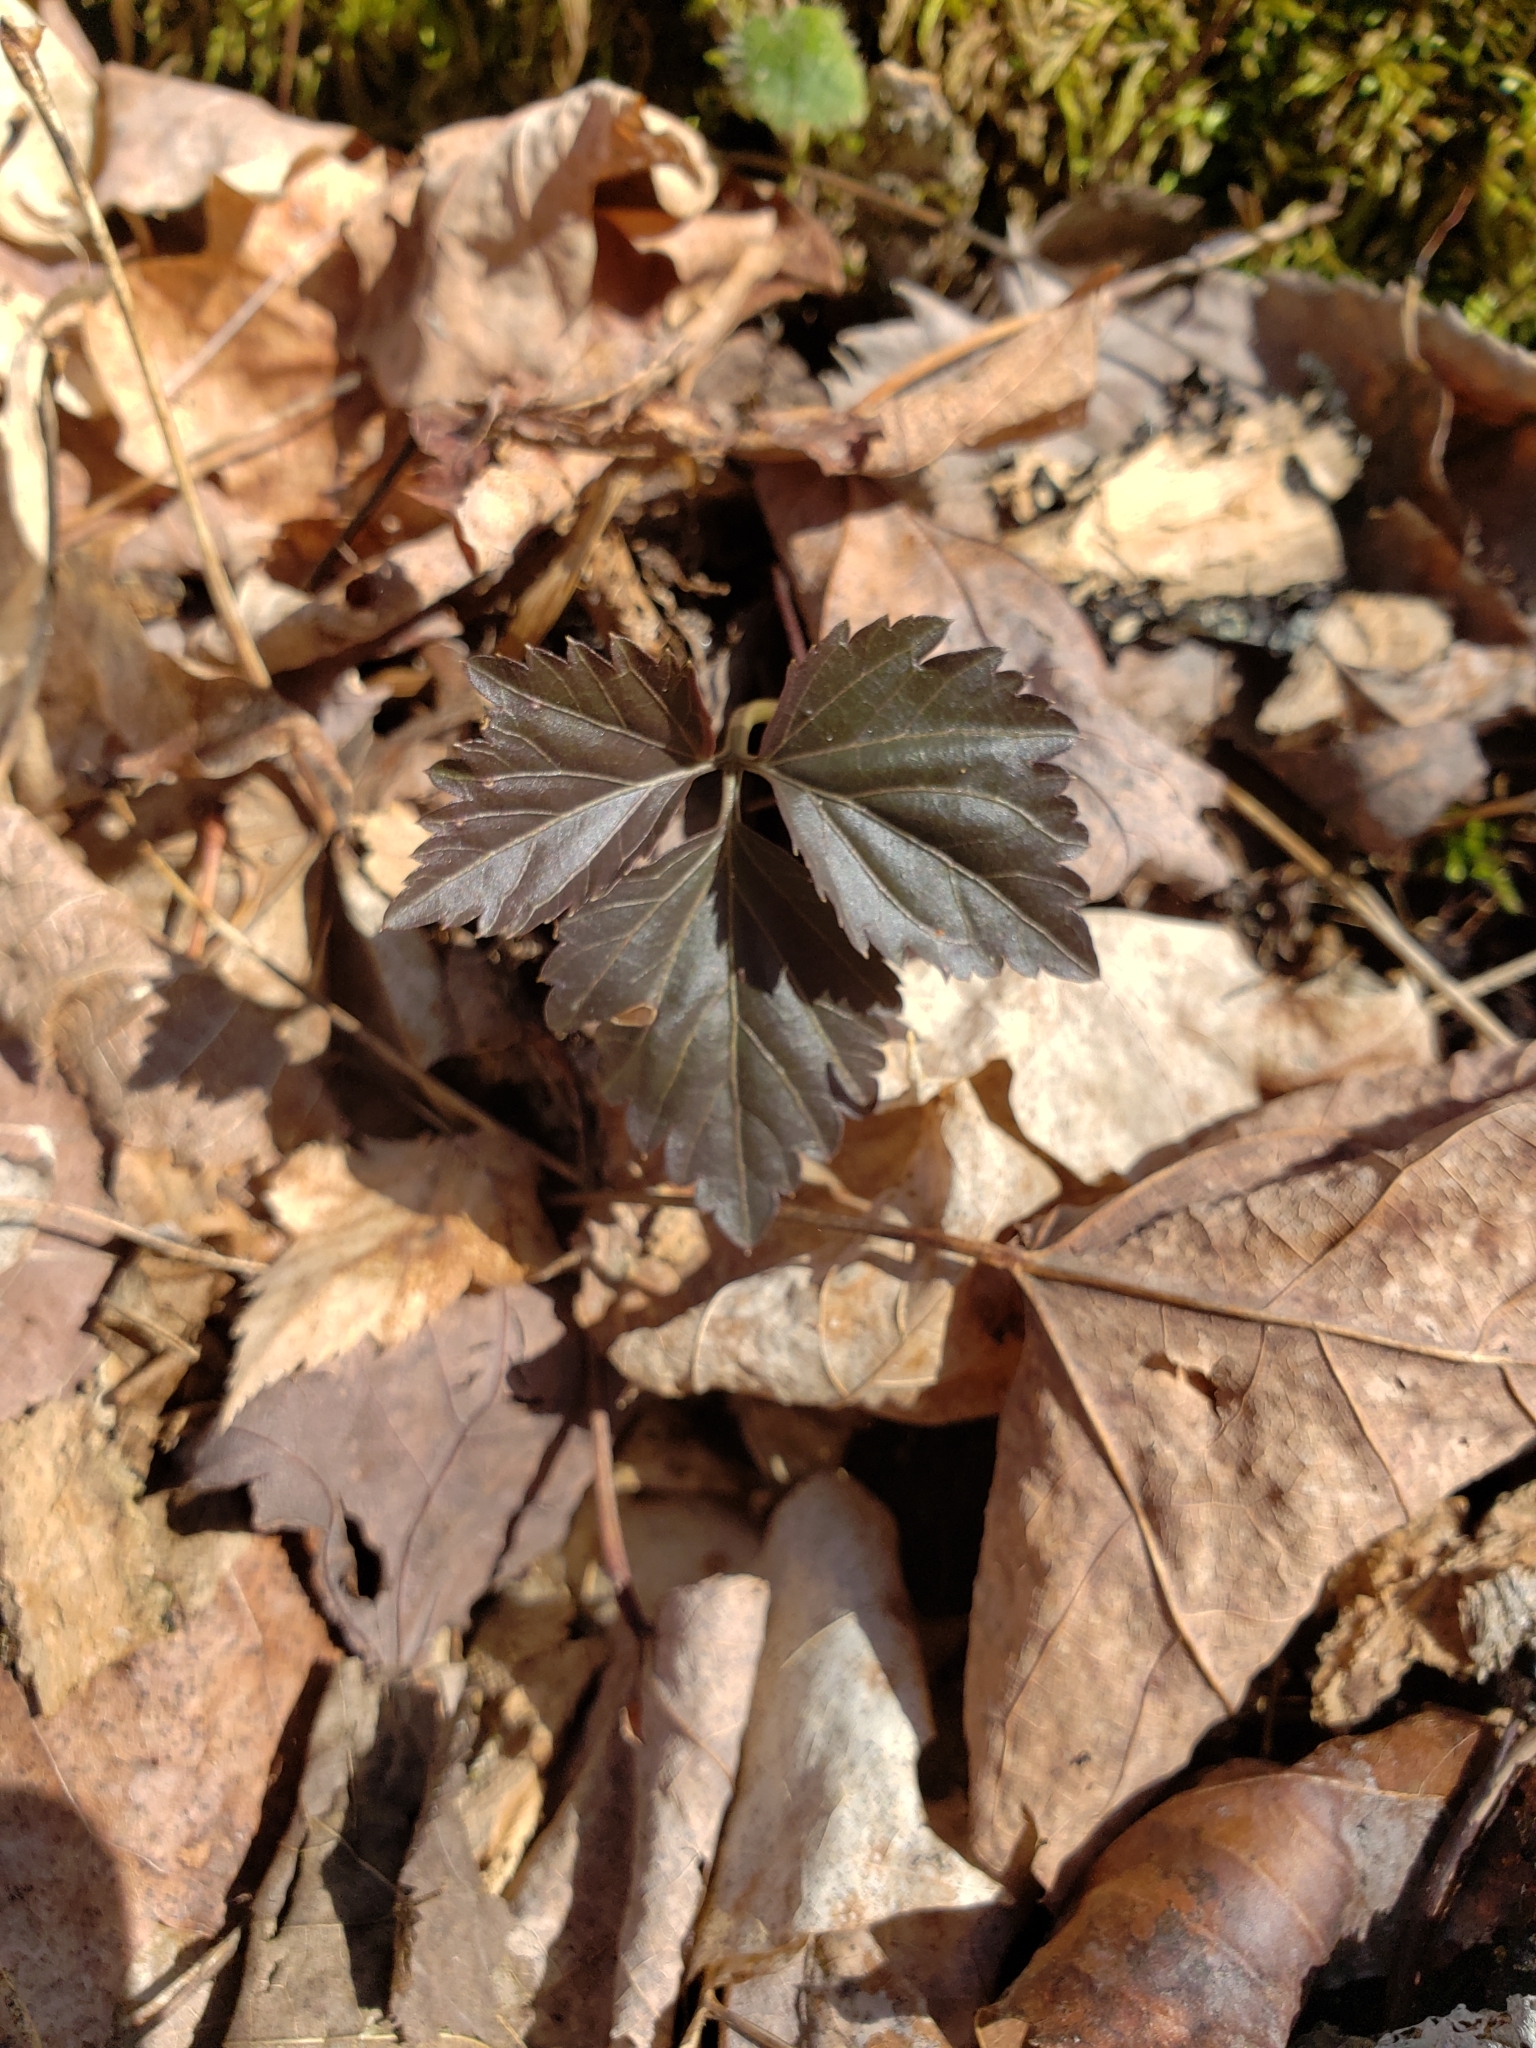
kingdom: Plantae
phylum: Tracheophyta
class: Magnoliopsida
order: Brassicales
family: Brassicaceae
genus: Cardamine
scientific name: Cardamine diphylla
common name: Broad-leaved toothwort
